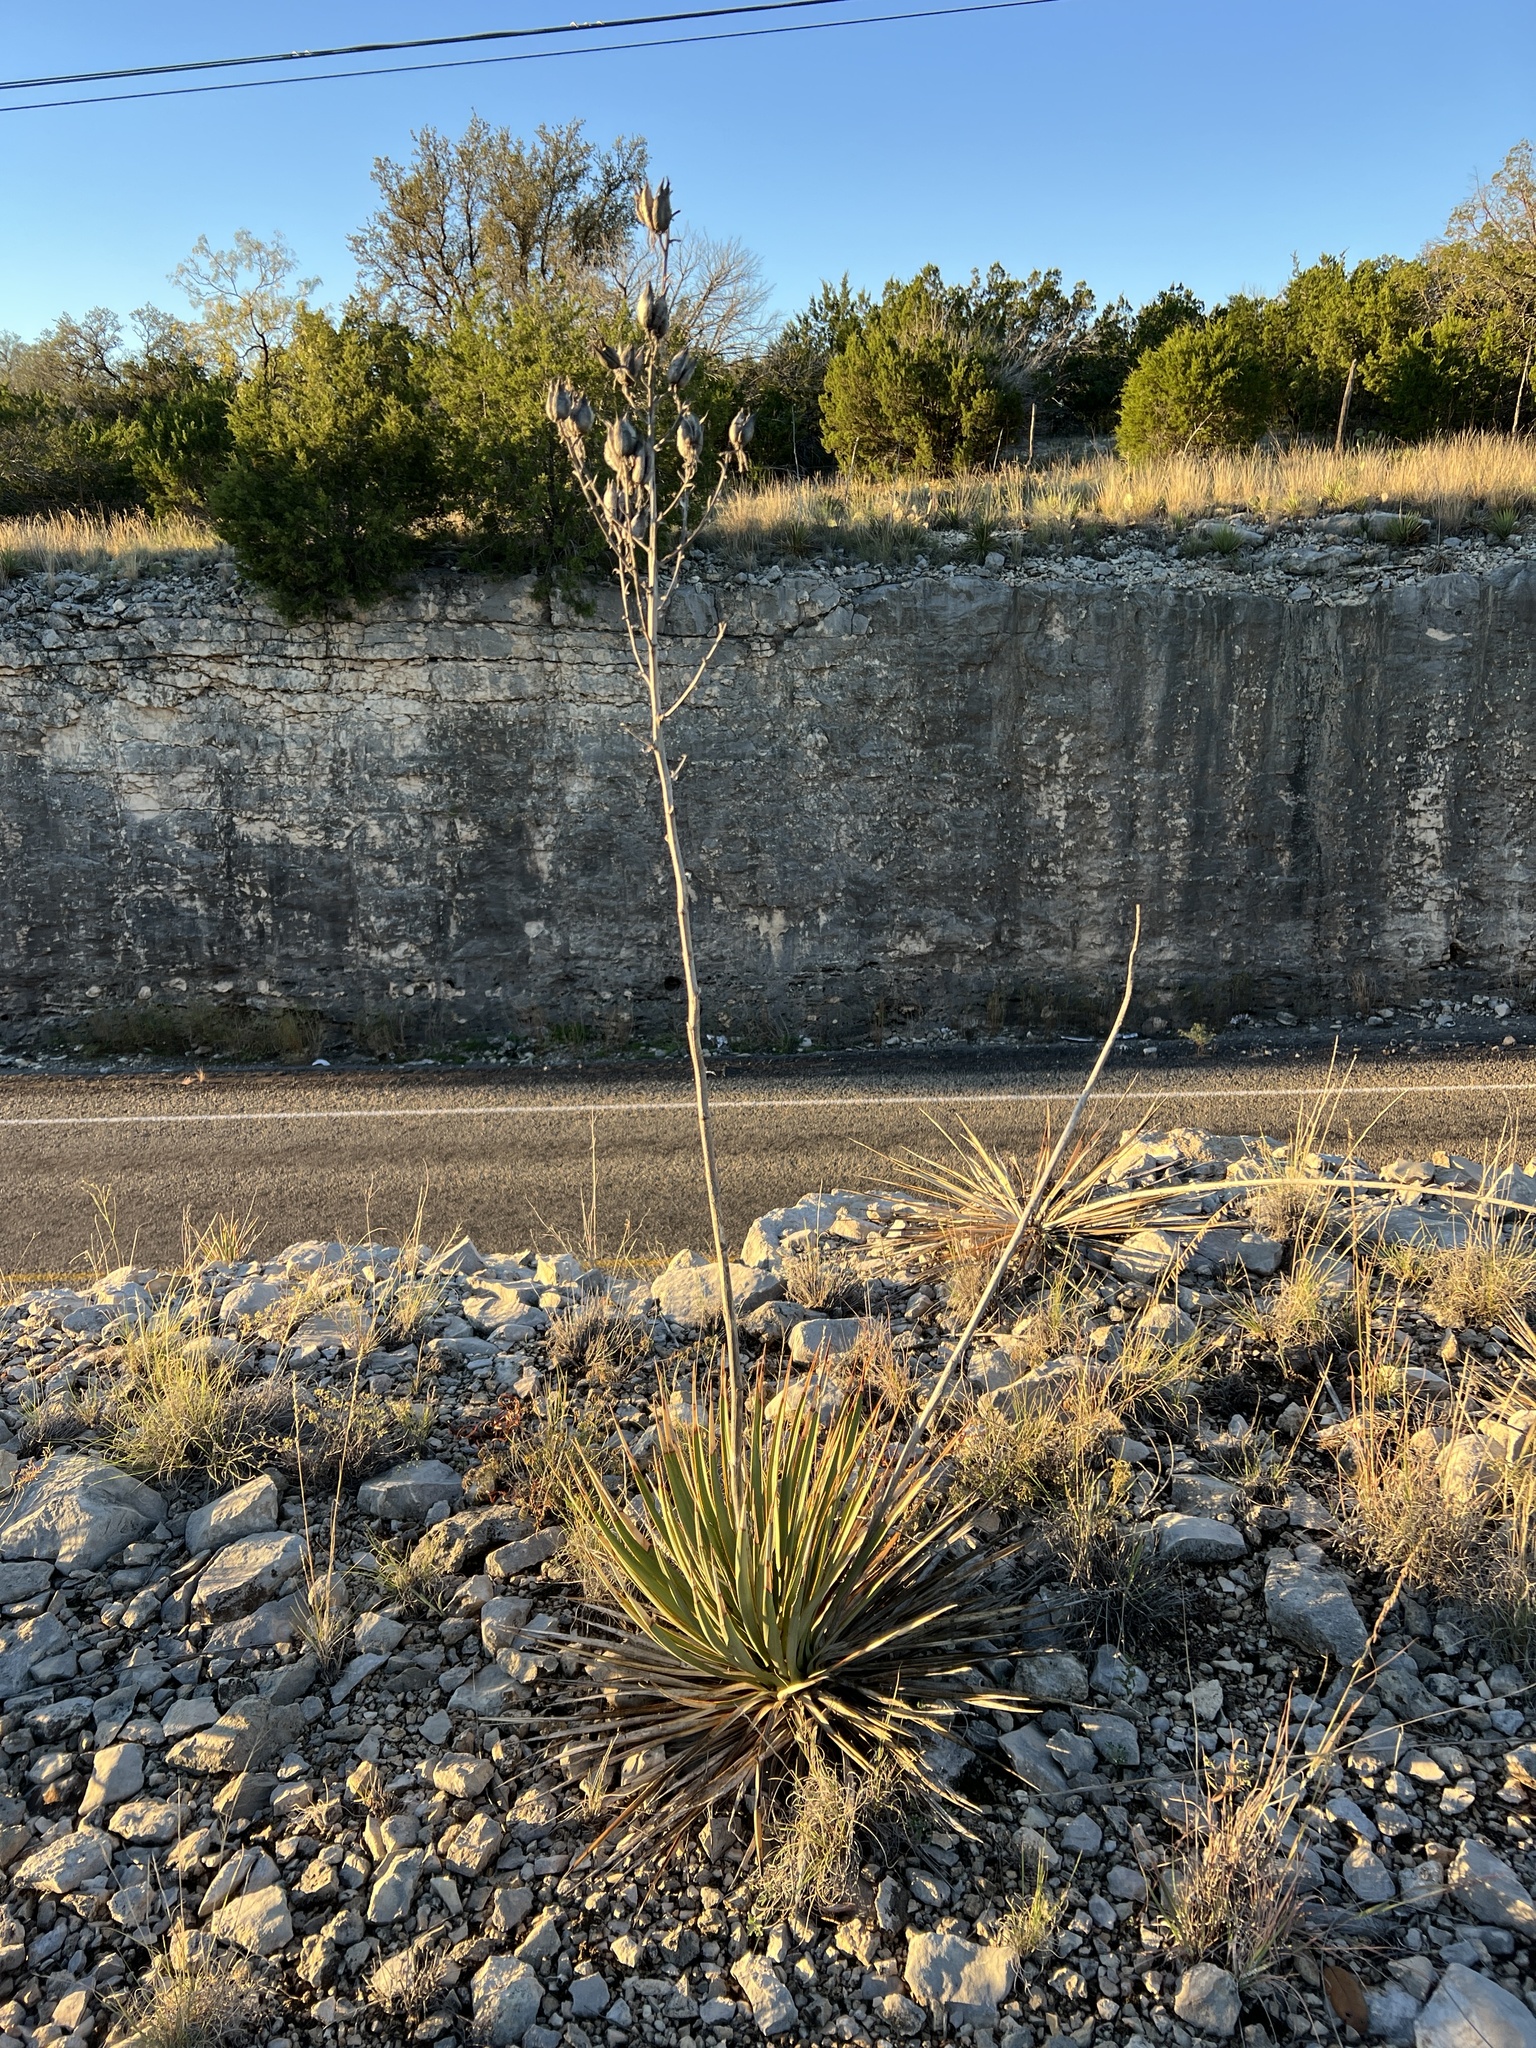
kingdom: Plantae
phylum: Tracheophyta
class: Liliopsida
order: Asparagales
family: Asparagaceae
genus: Yucca
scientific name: Yucca reverchonii
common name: San angelo yucca
